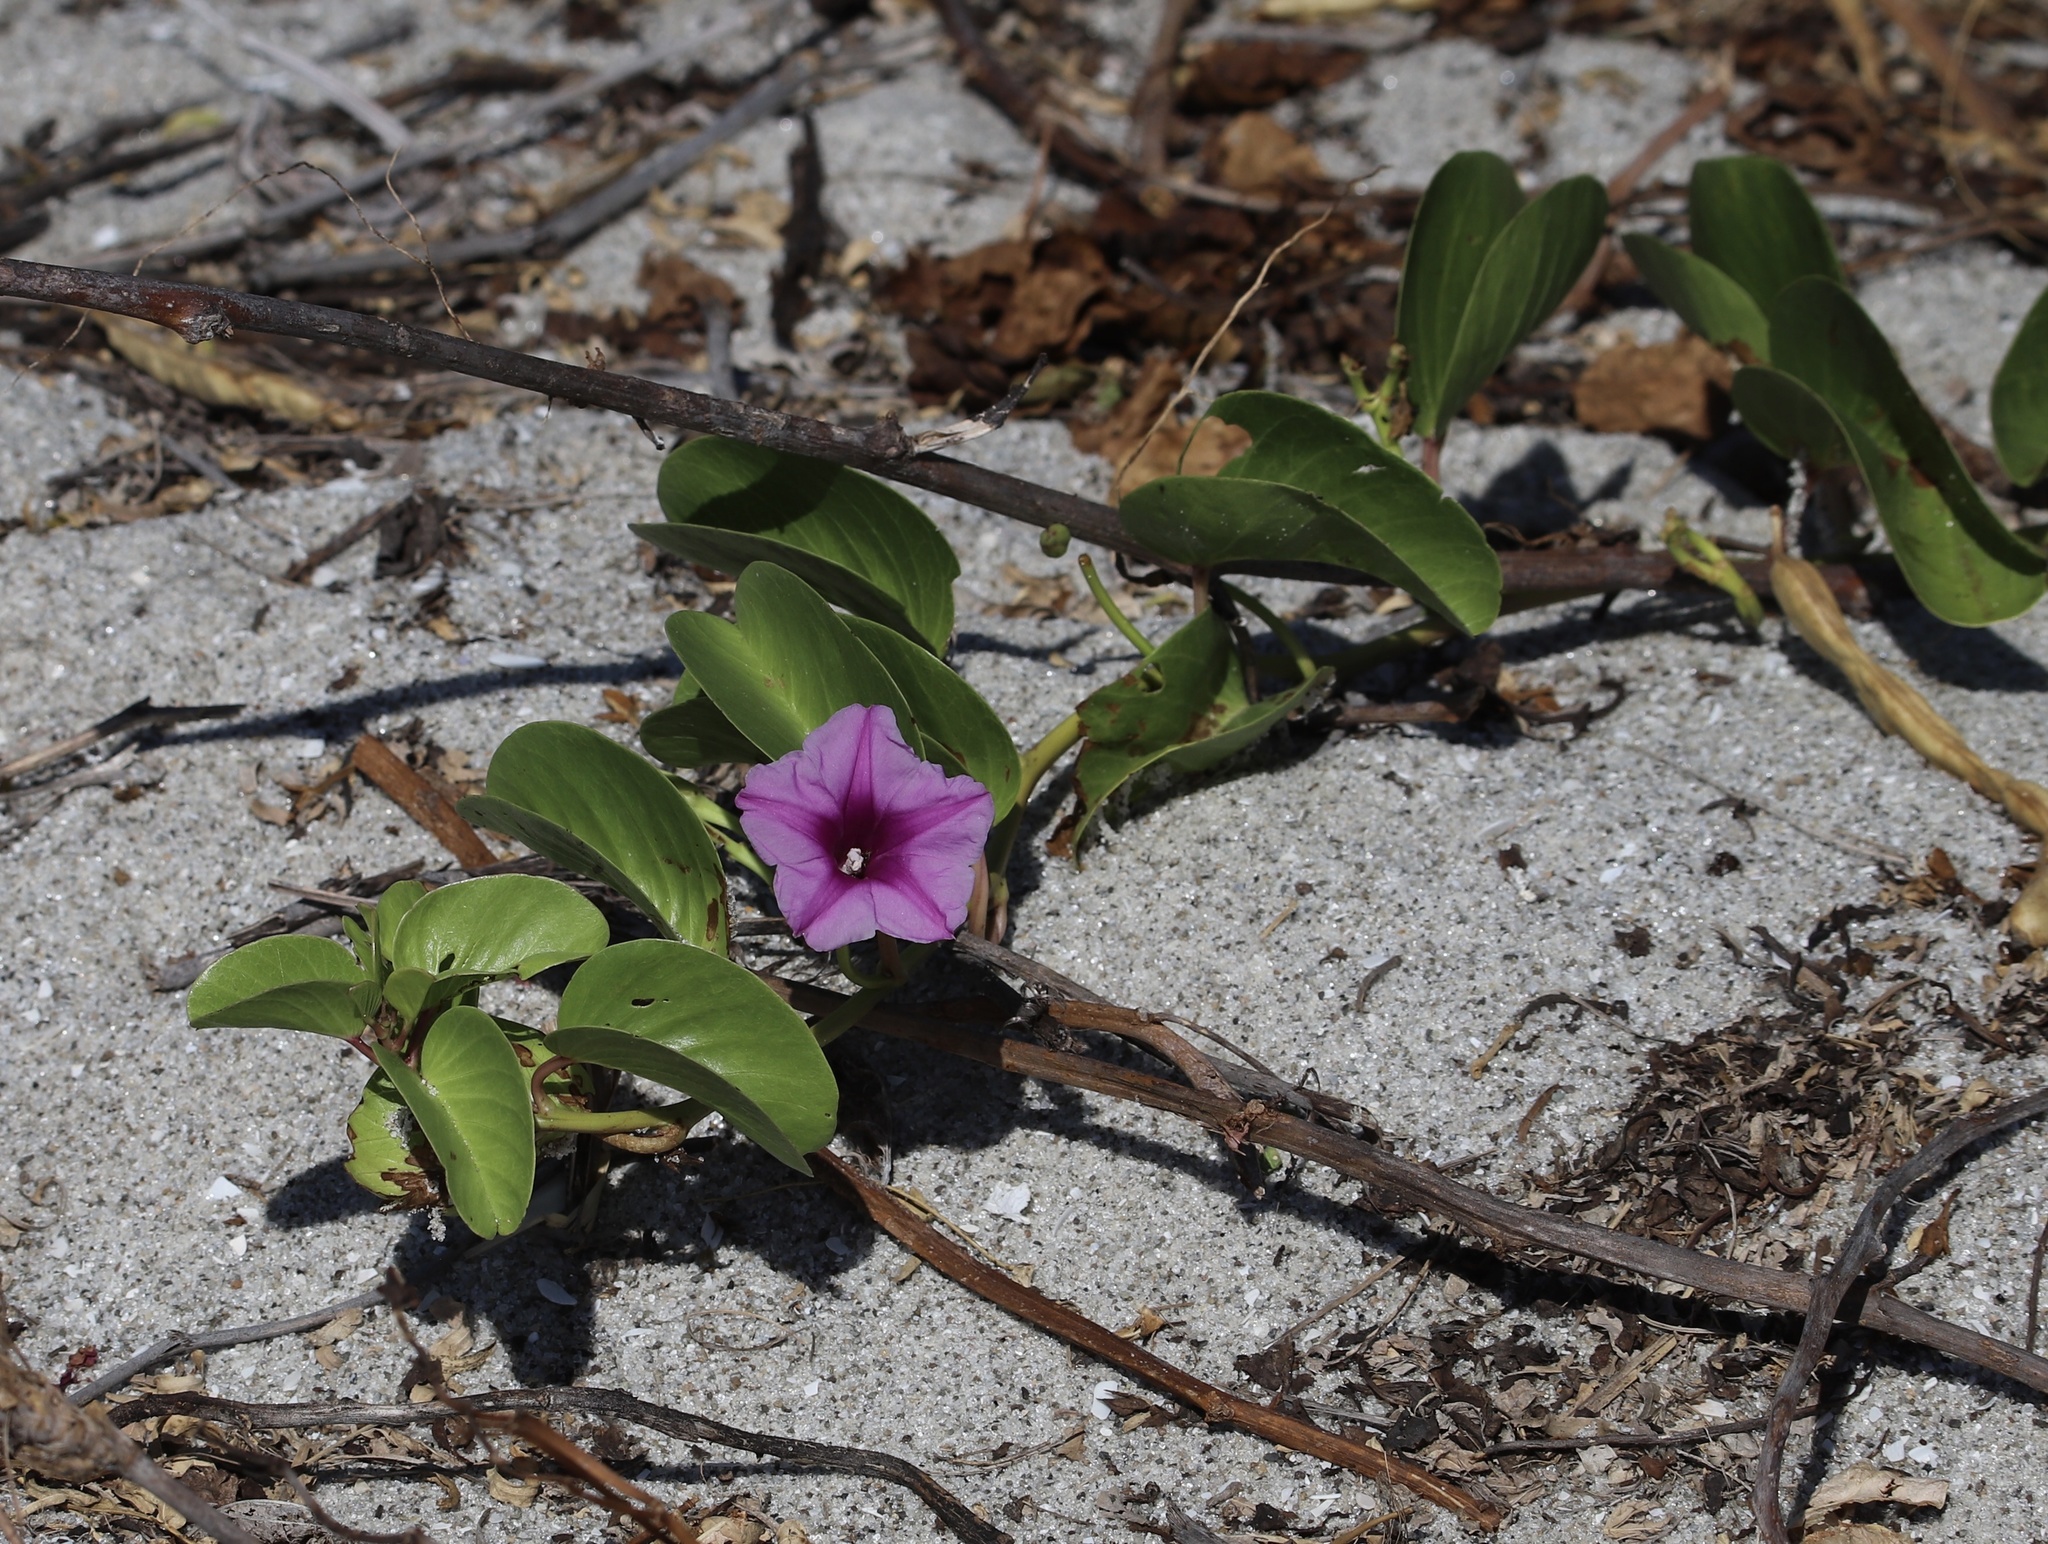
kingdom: Plantae
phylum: Tracheophyta
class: Magnoliopsida
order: Solanales
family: Convolvulaceae
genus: Ipomoea
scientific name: Ipomoea pes-caprae
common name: Beach morning glory
